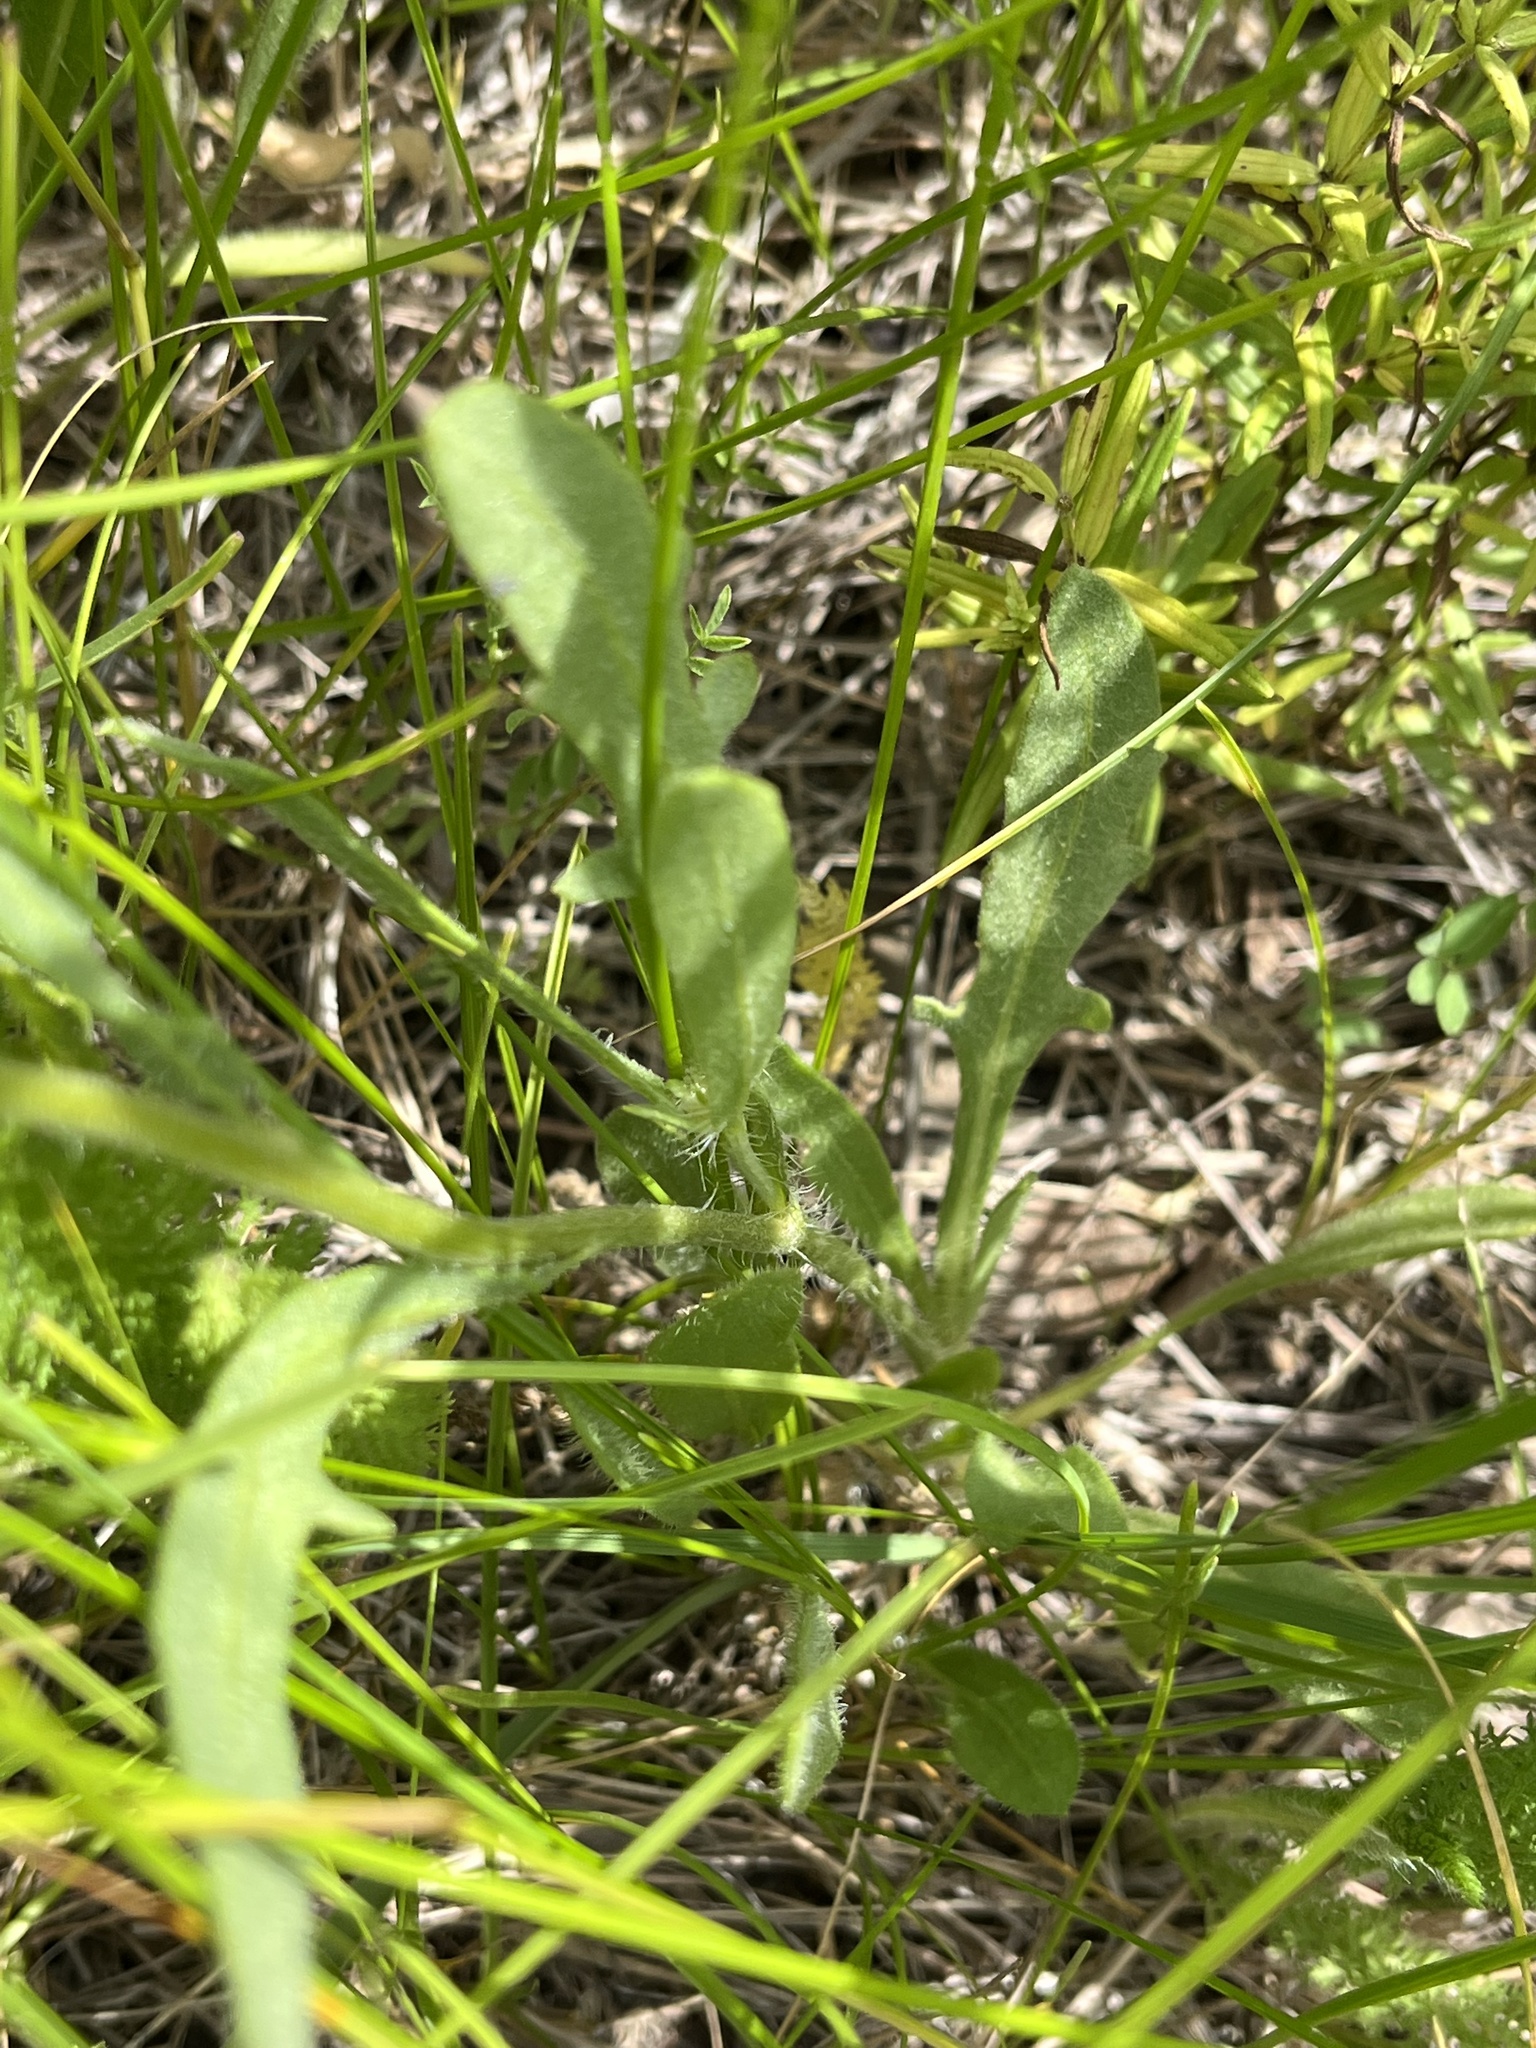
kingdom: Plantae
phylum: Tracheophyta
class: Magnoliopsida
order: Asterales
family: Asteraceae
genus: Gaillardia
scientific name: Gaillardia aristata
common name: Blanket-flower
